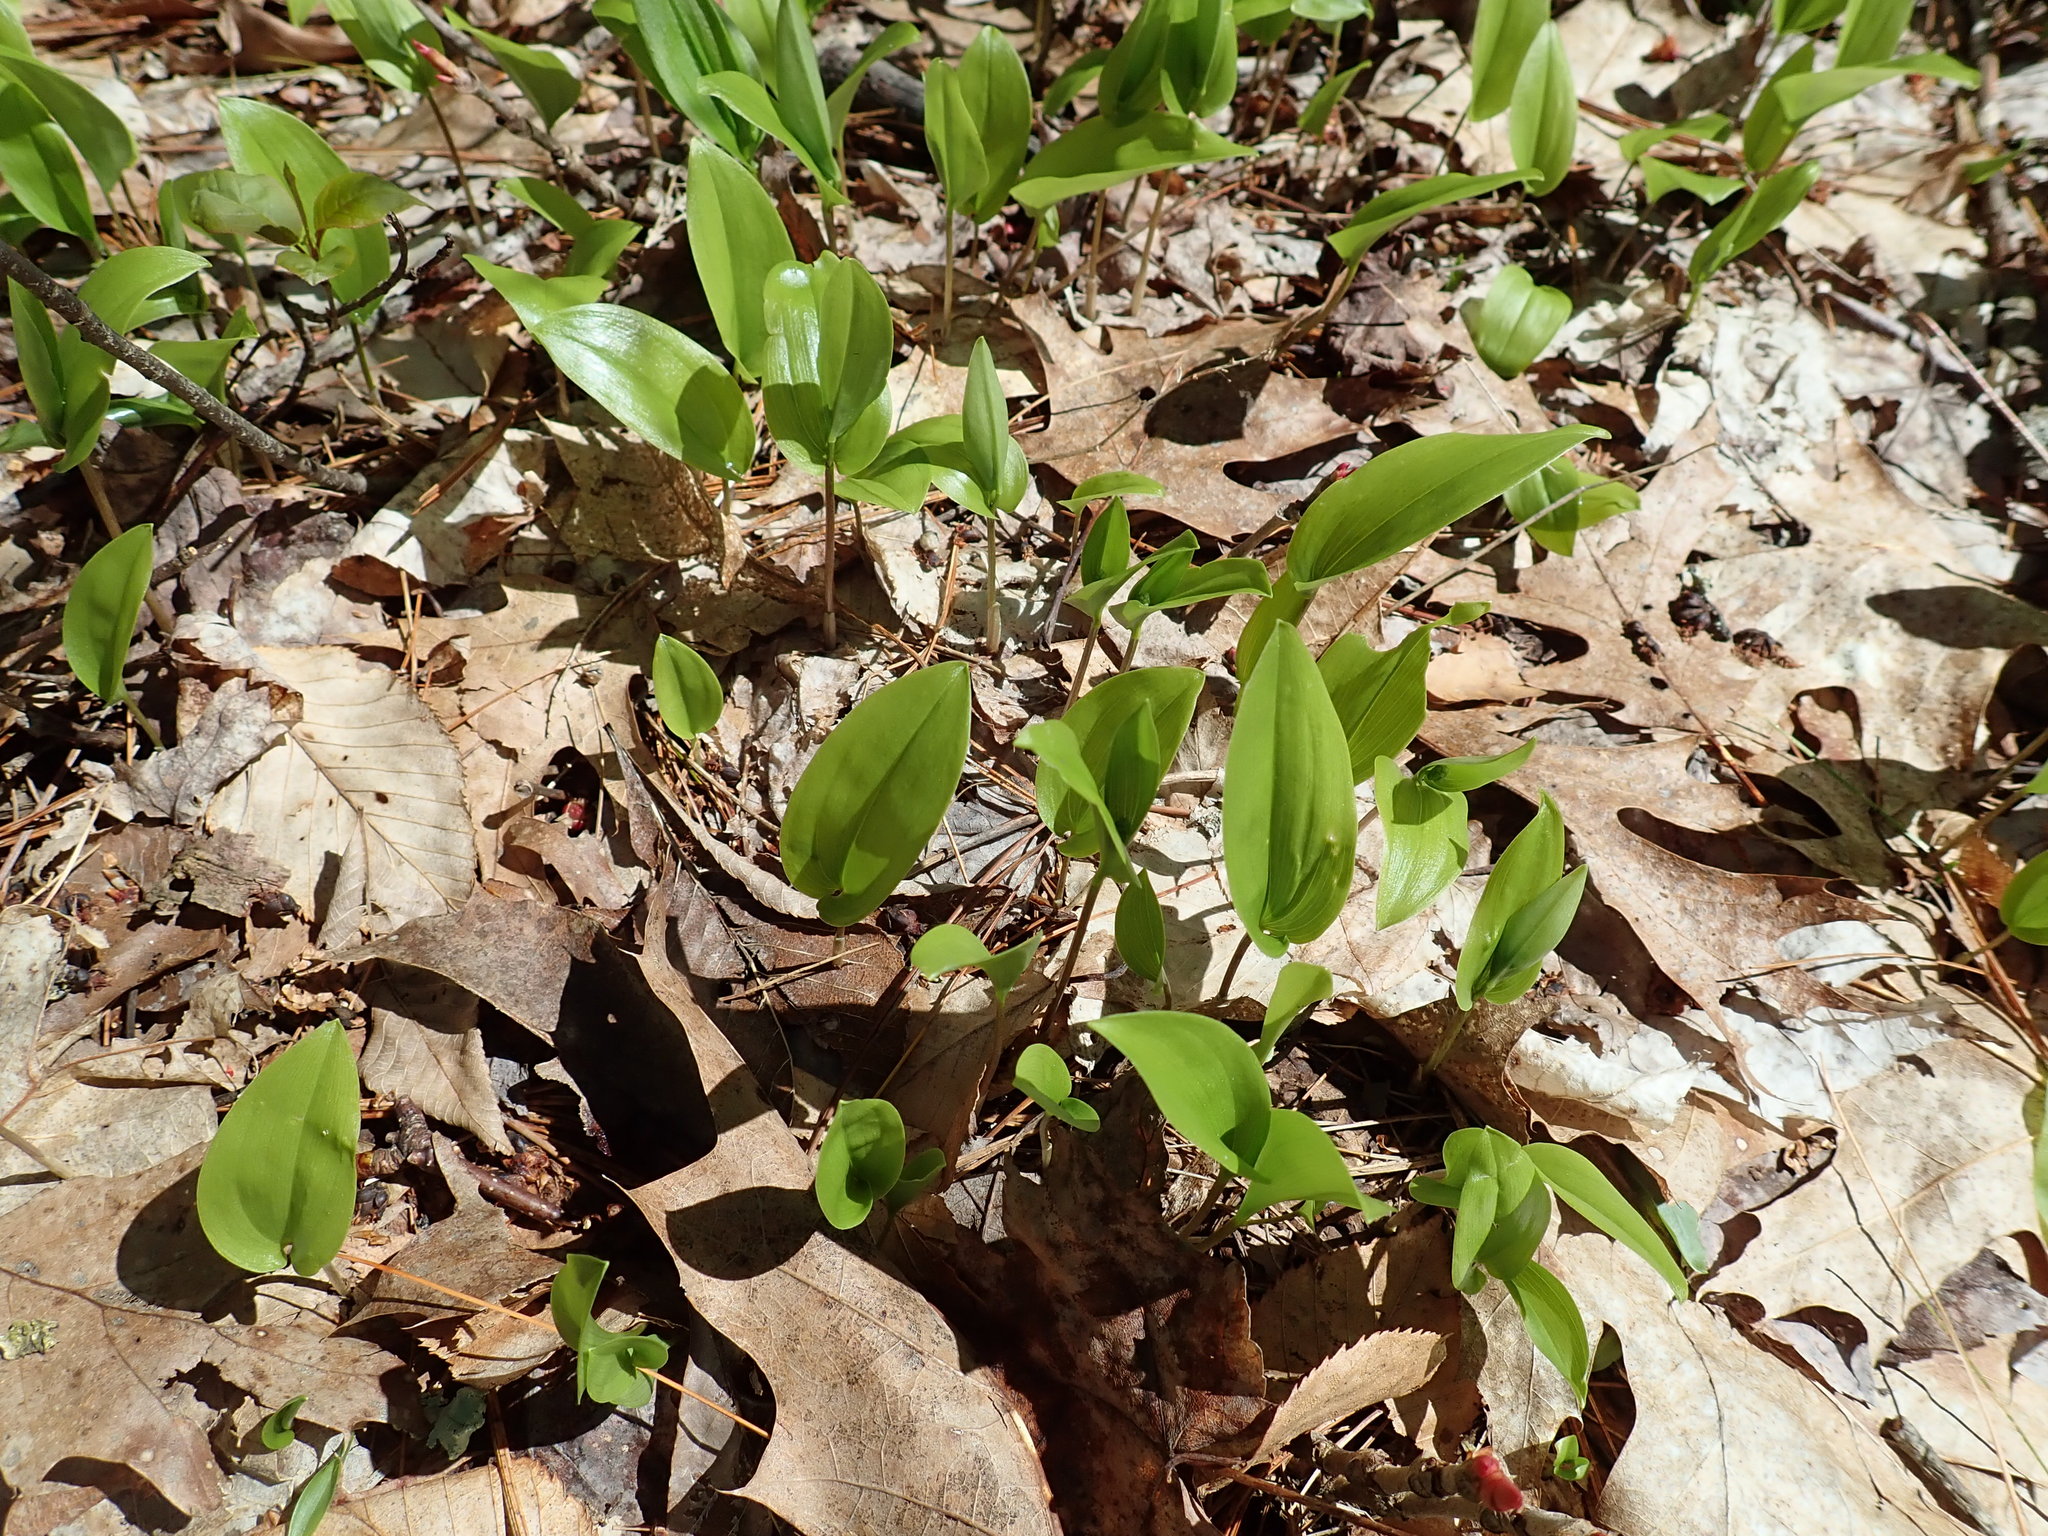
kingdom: Plantae
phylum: Tracheophyta
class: Liliopsida
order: Asparagales
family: Asparagaceae
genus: Maianthemum
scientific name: Maianthemum canadense
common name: False lily-of-the-valley
